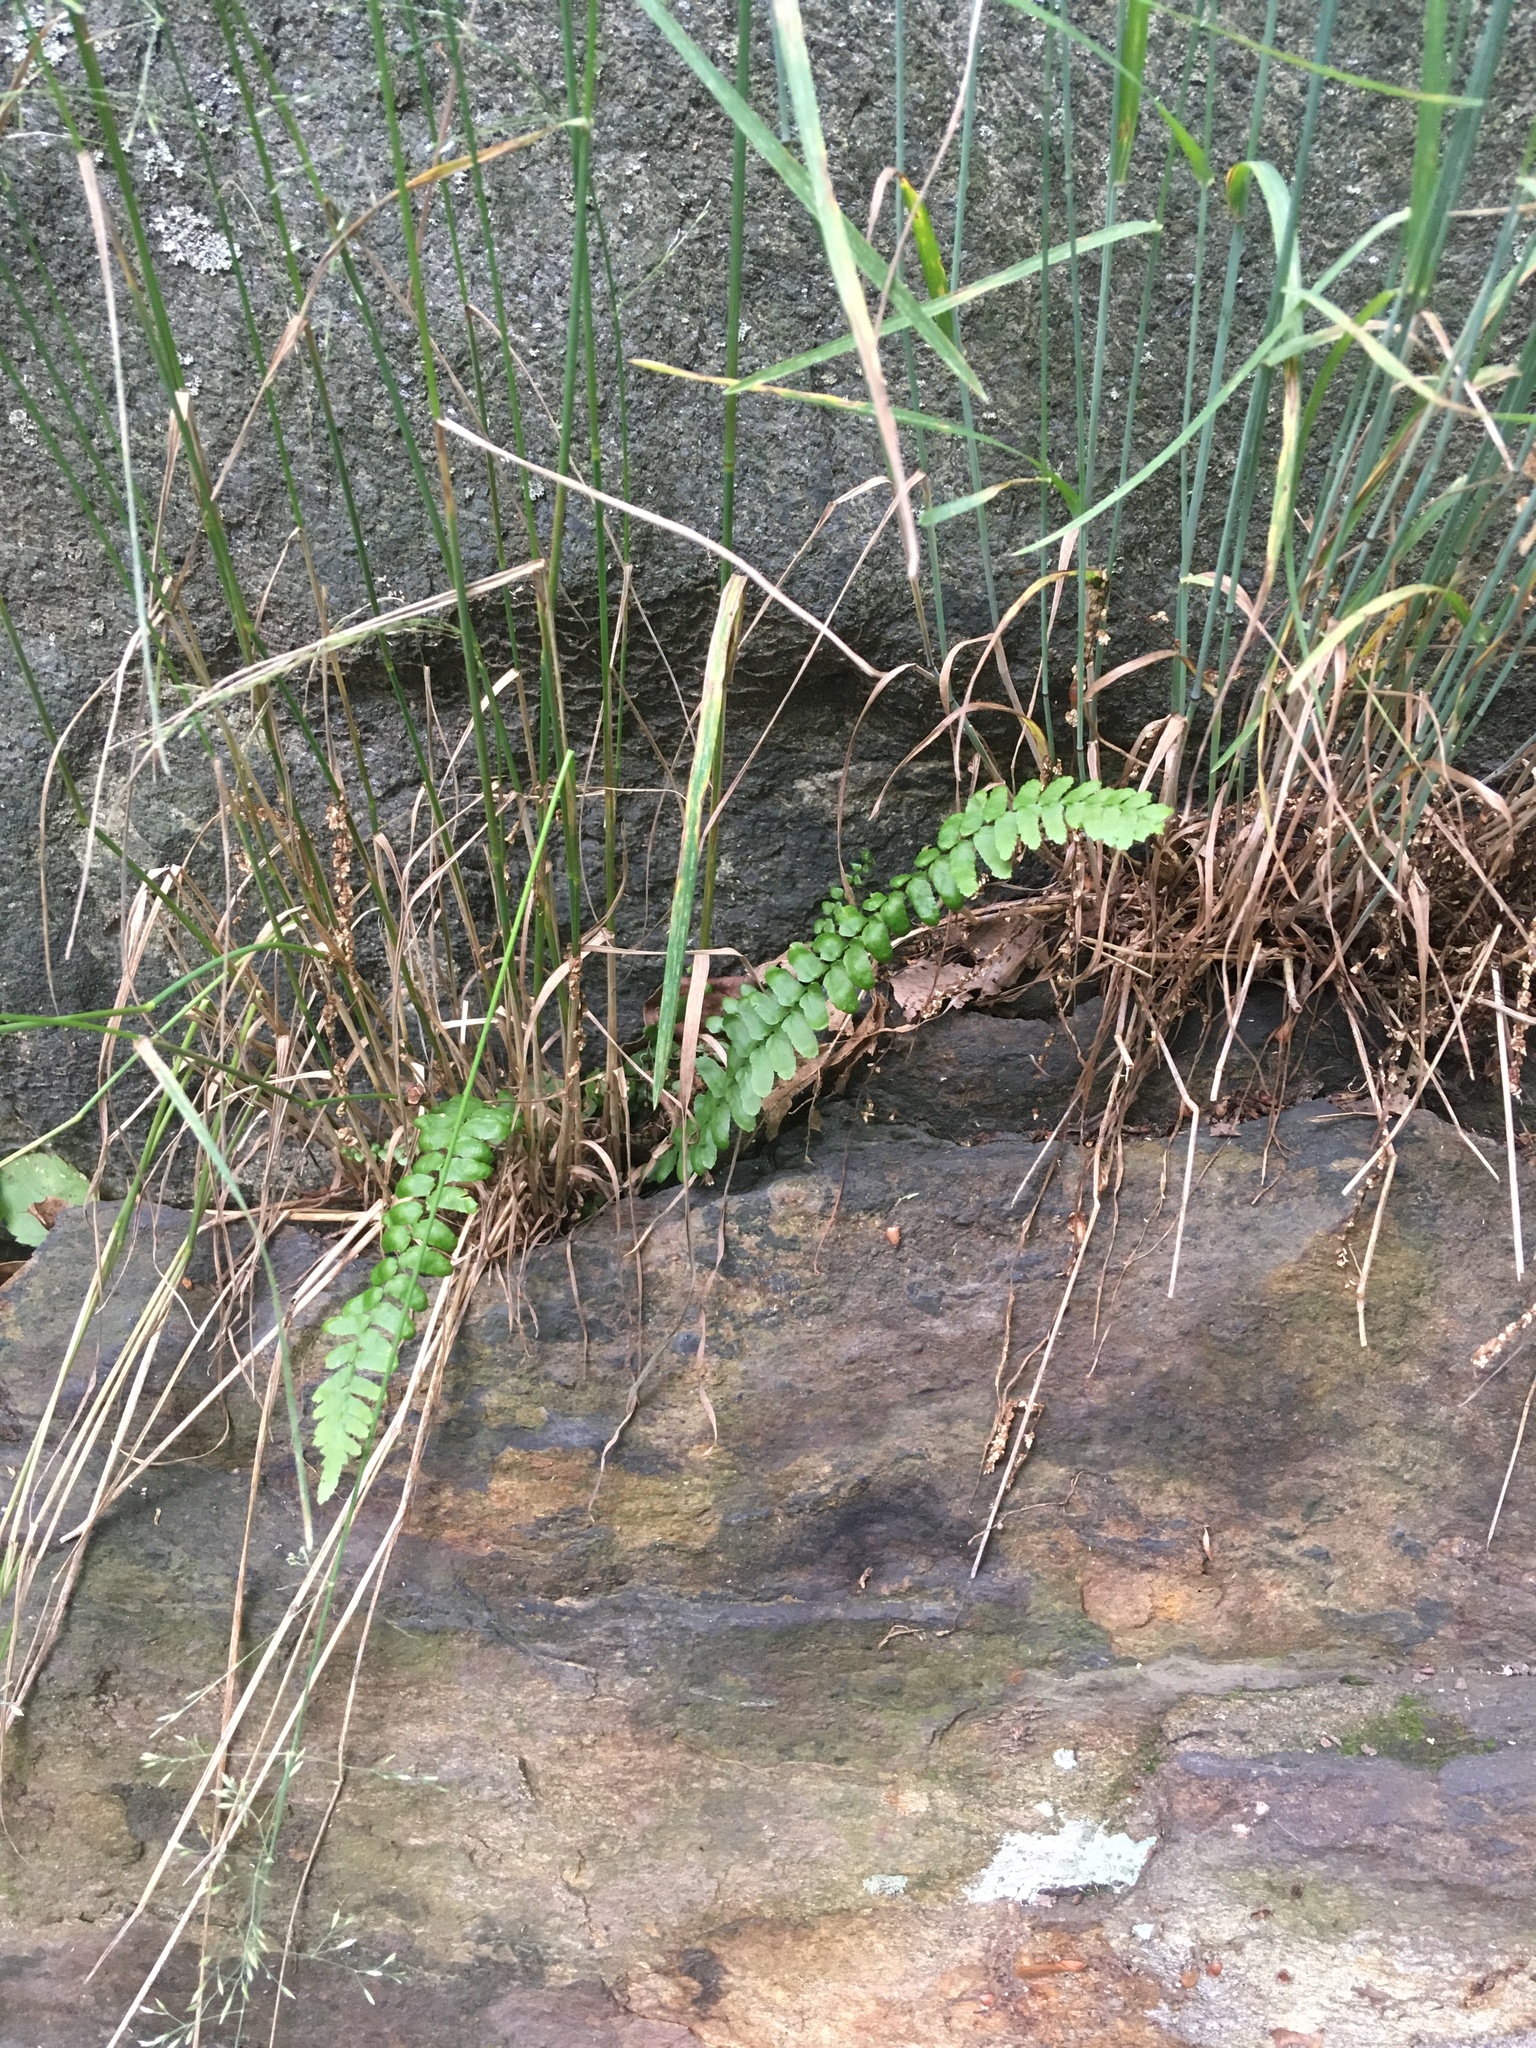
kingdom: Plantae
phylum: Tracheophyta
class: Polypodiopsida
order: Polypodiales
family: Aspleniaceae
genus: Asplenium
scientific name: Asplenium platyneuron
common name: Ebony spleenwort
